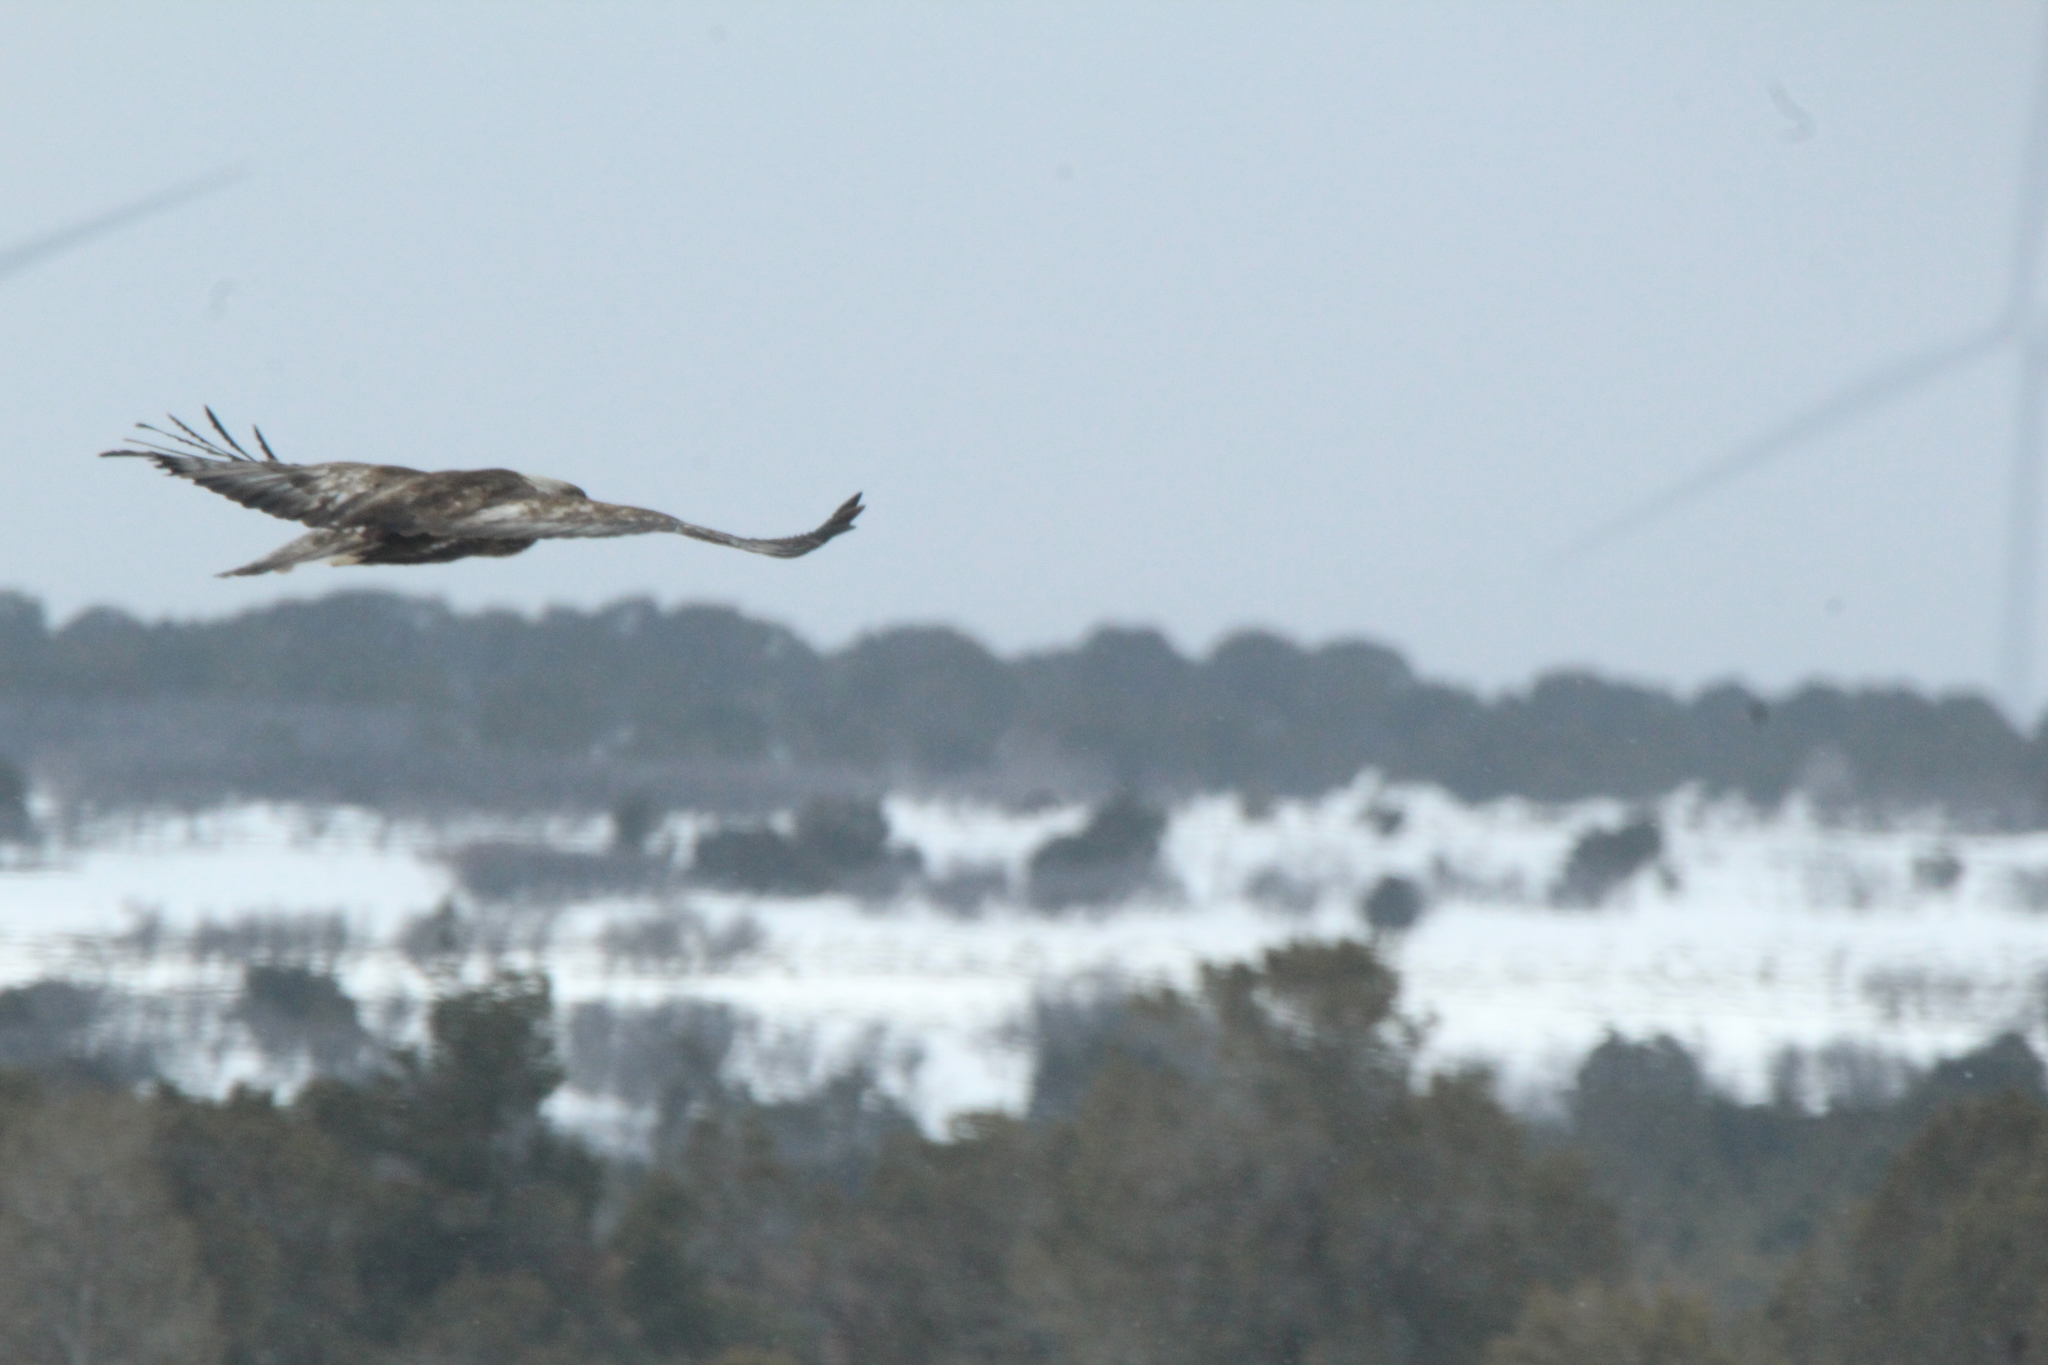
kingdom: Animalia
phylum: Chordata
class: Aves
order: Accipitriformes
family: Accipitridae
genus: Aquila
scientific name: Aquila chrysaetos
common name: Golden eagle
